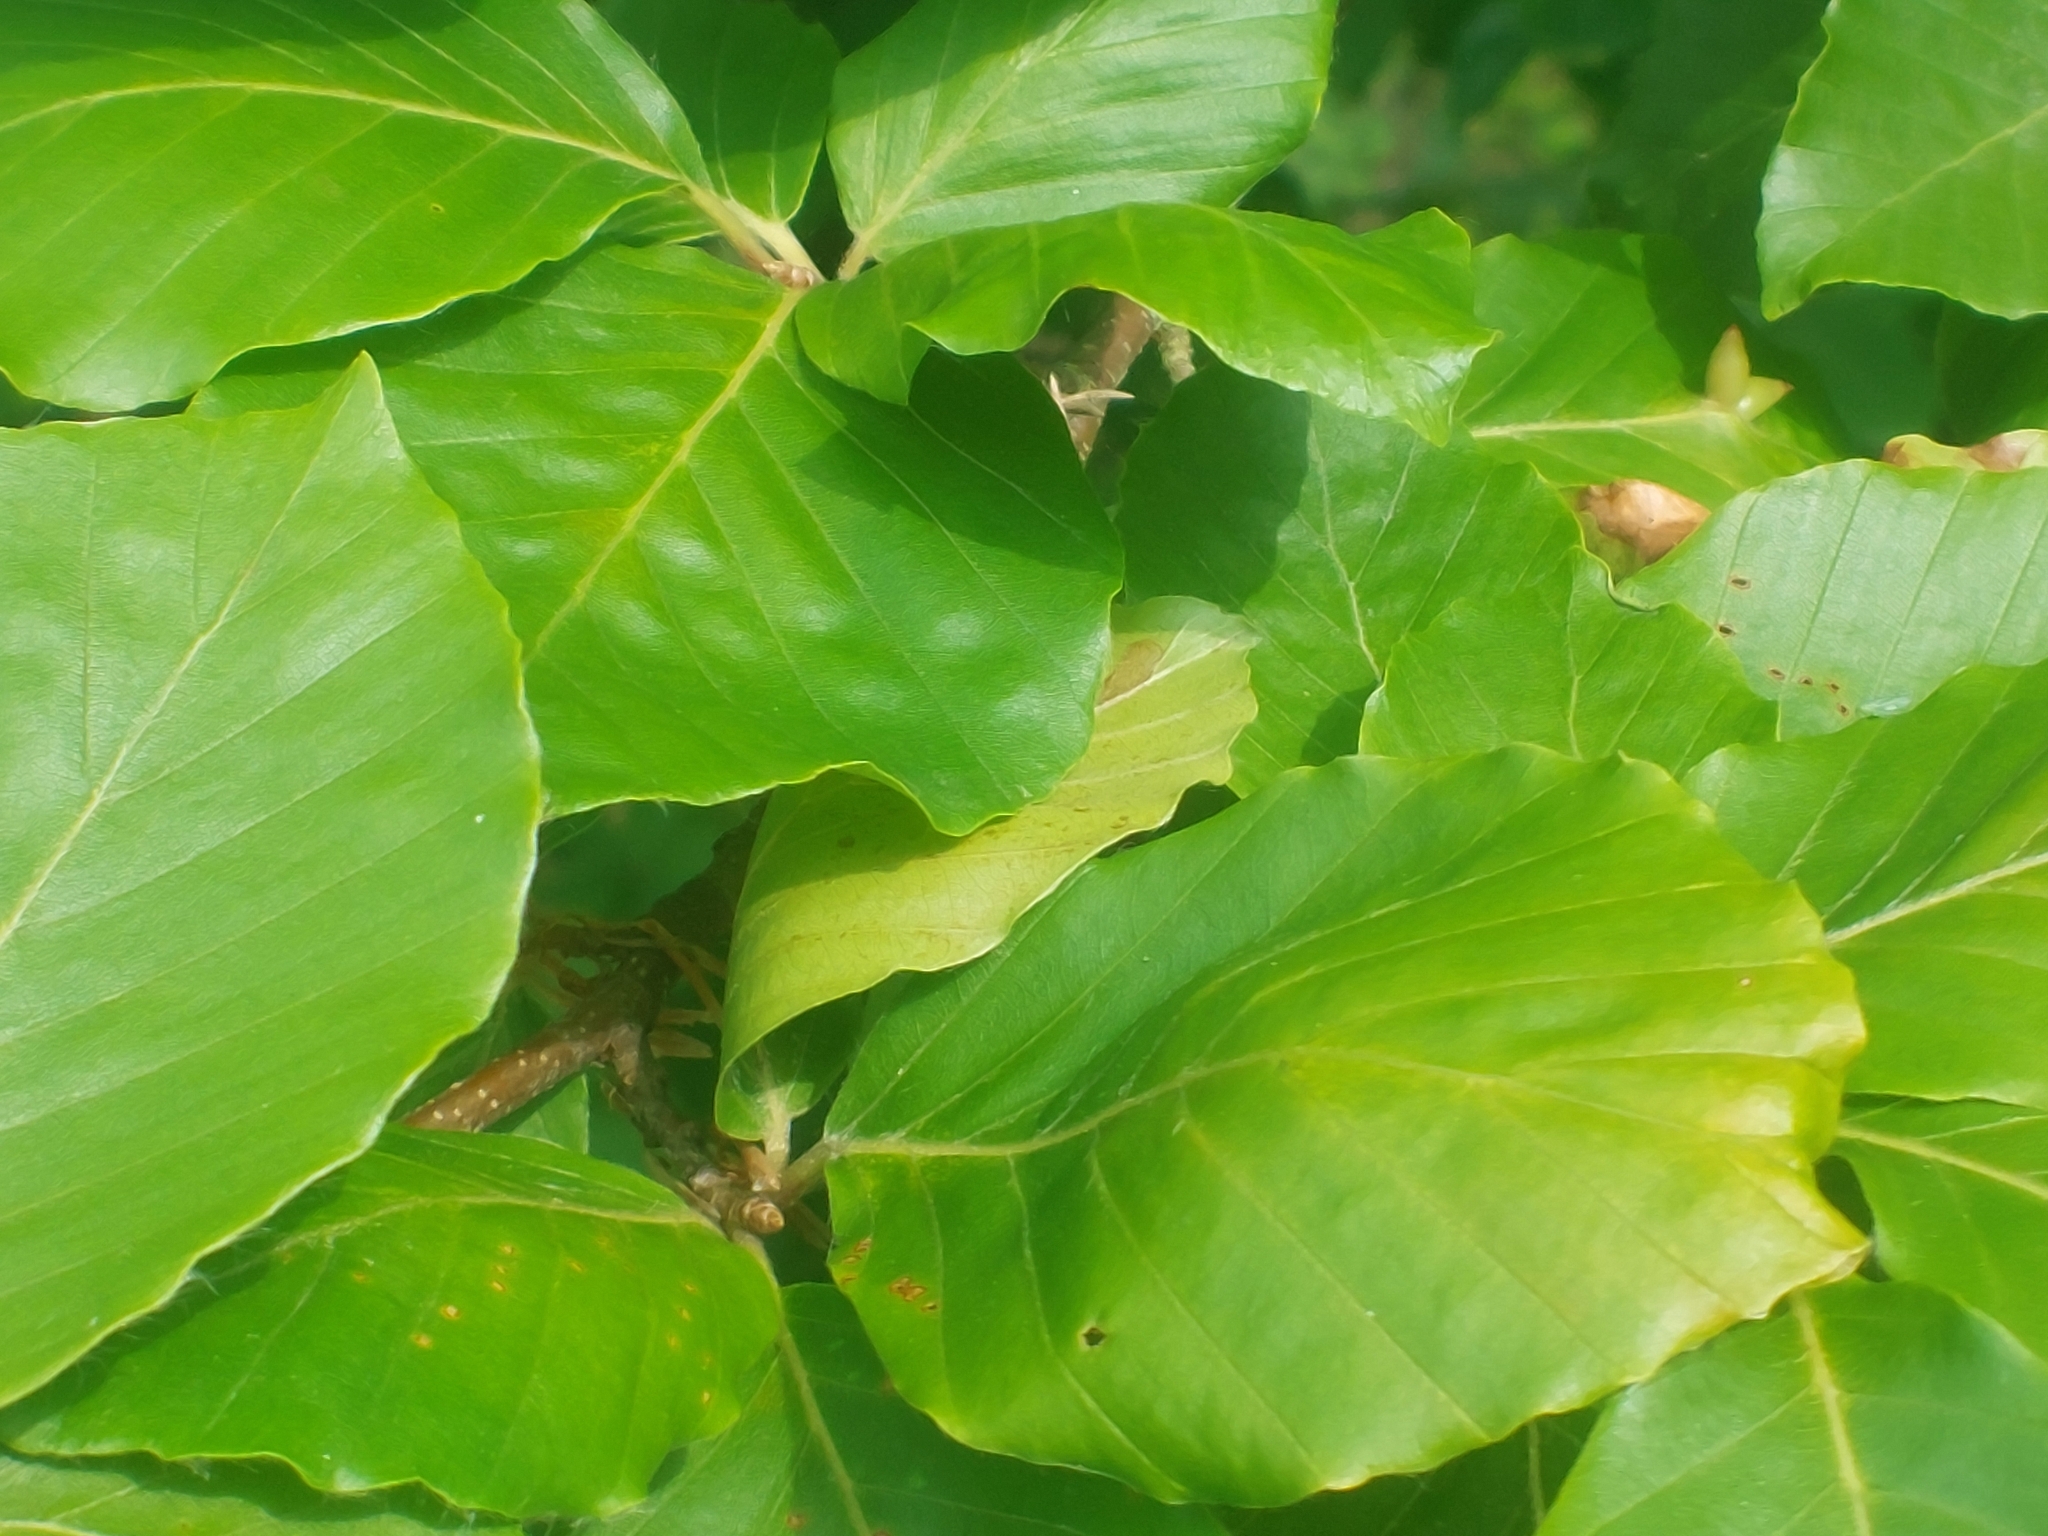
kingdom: Plantae
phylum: Tracheophyta
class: Magnoliopsida
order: Fagales
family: Fagaceae
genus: Fagus
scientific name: Fagus sylvatica
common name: Beech
